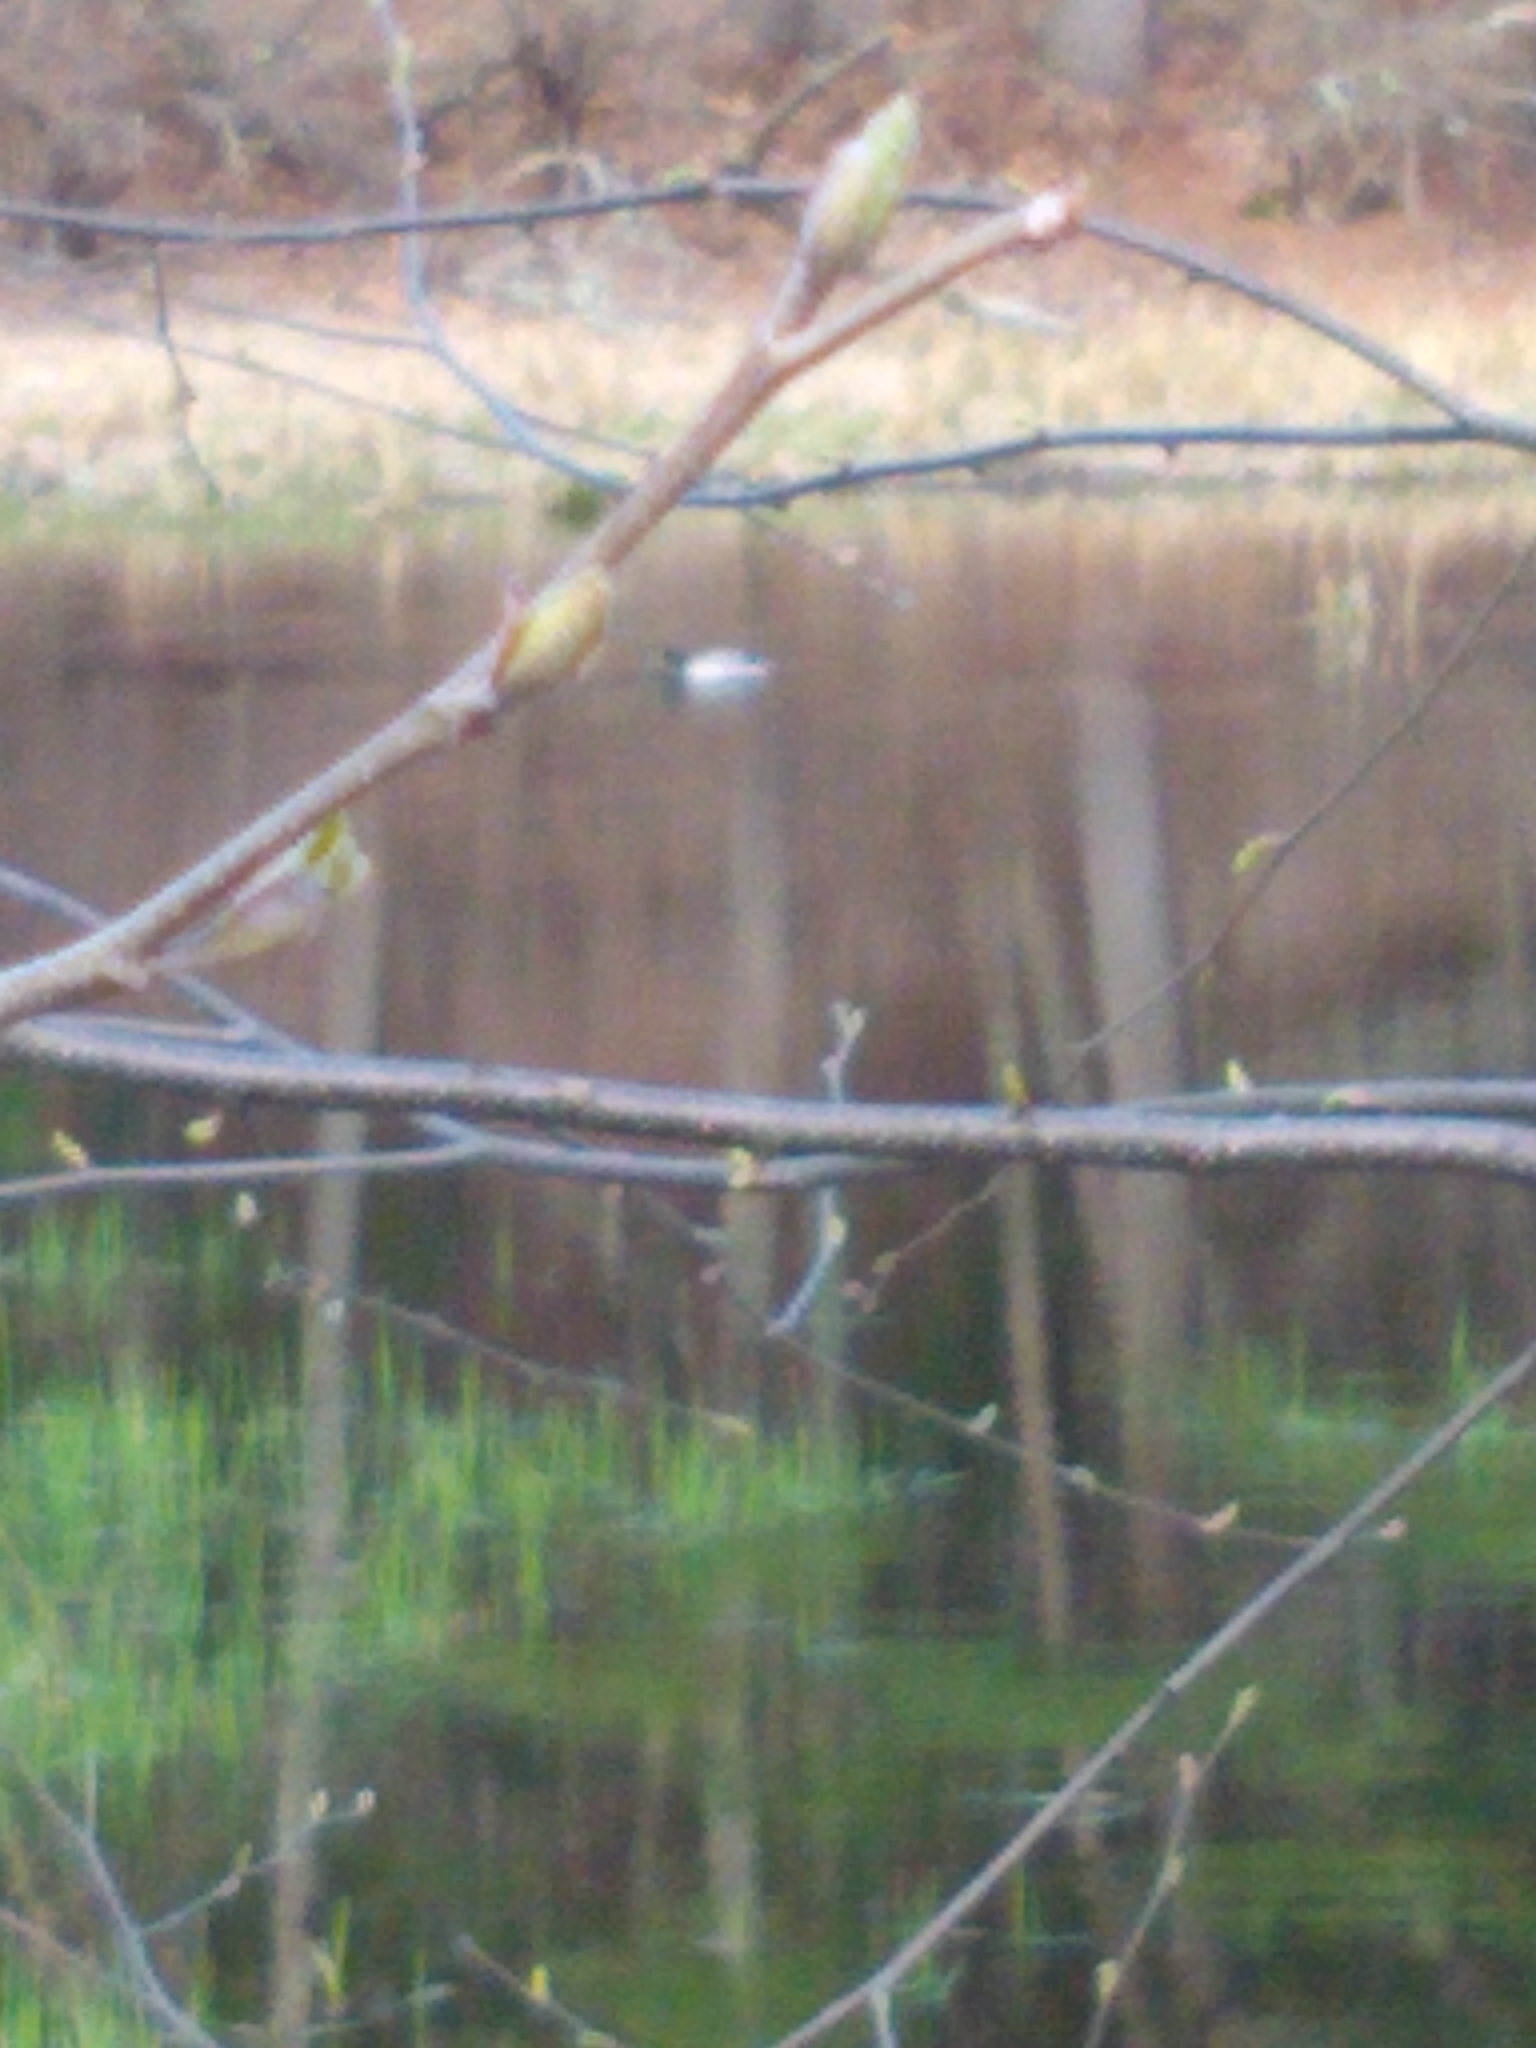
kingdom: Animalia
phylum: Chordata
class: Aves
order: Anseriformes
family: Anatidae
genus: Anas
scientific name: Anas platyrhynchos
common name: Mallard
